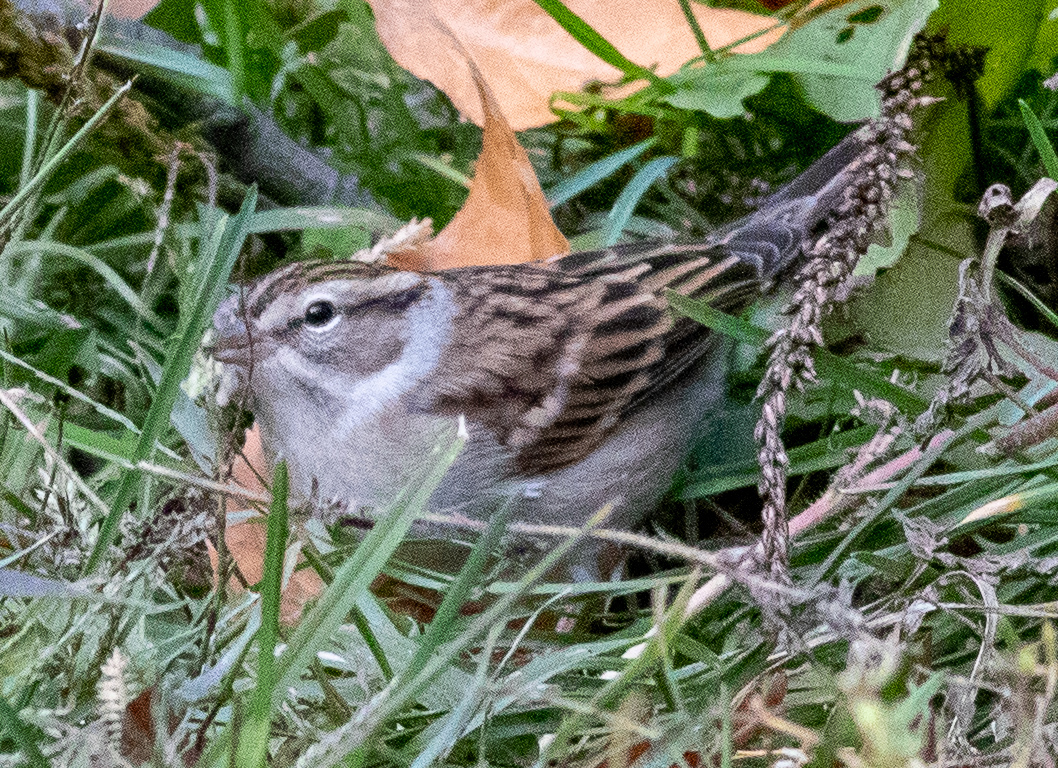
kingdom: Animalia
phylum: Chordata
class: Aves
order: Passeriformes
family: Passerellidae
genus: Spizella
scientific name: Spizella passerina
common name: Chipping sparrow
